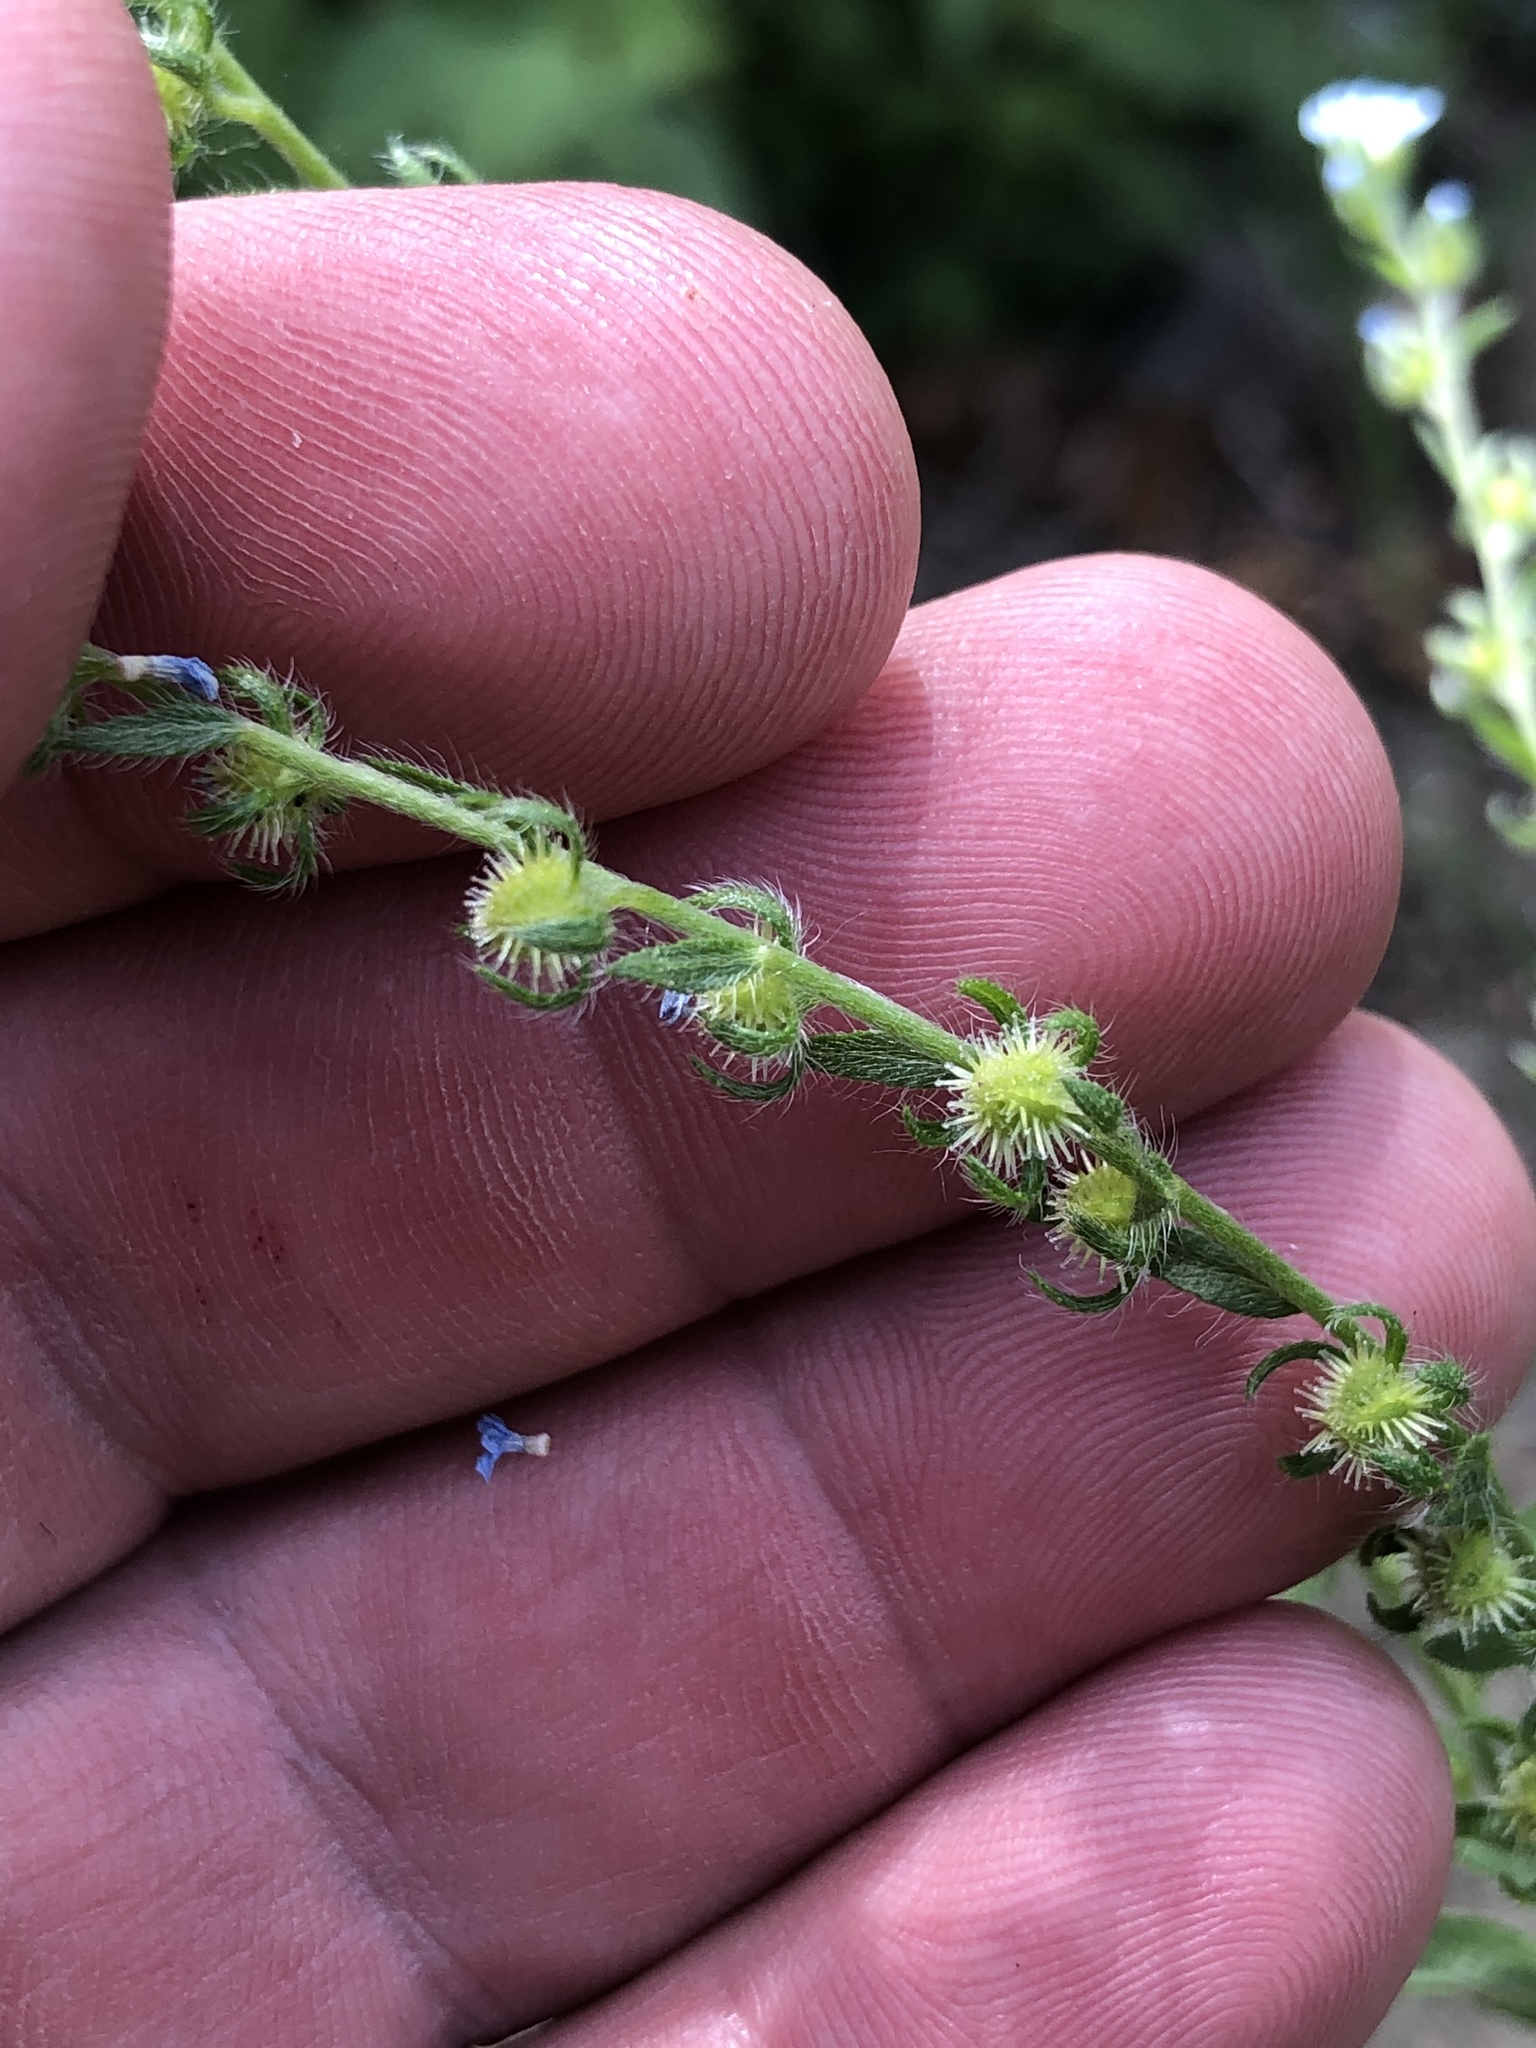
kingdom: Plantae
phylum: Tracheophyta
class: Magnoliopsida
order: Boraginales
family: Boraginaceae
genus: Lappula
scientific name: Lappula occidentalis
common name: Western stickseed
